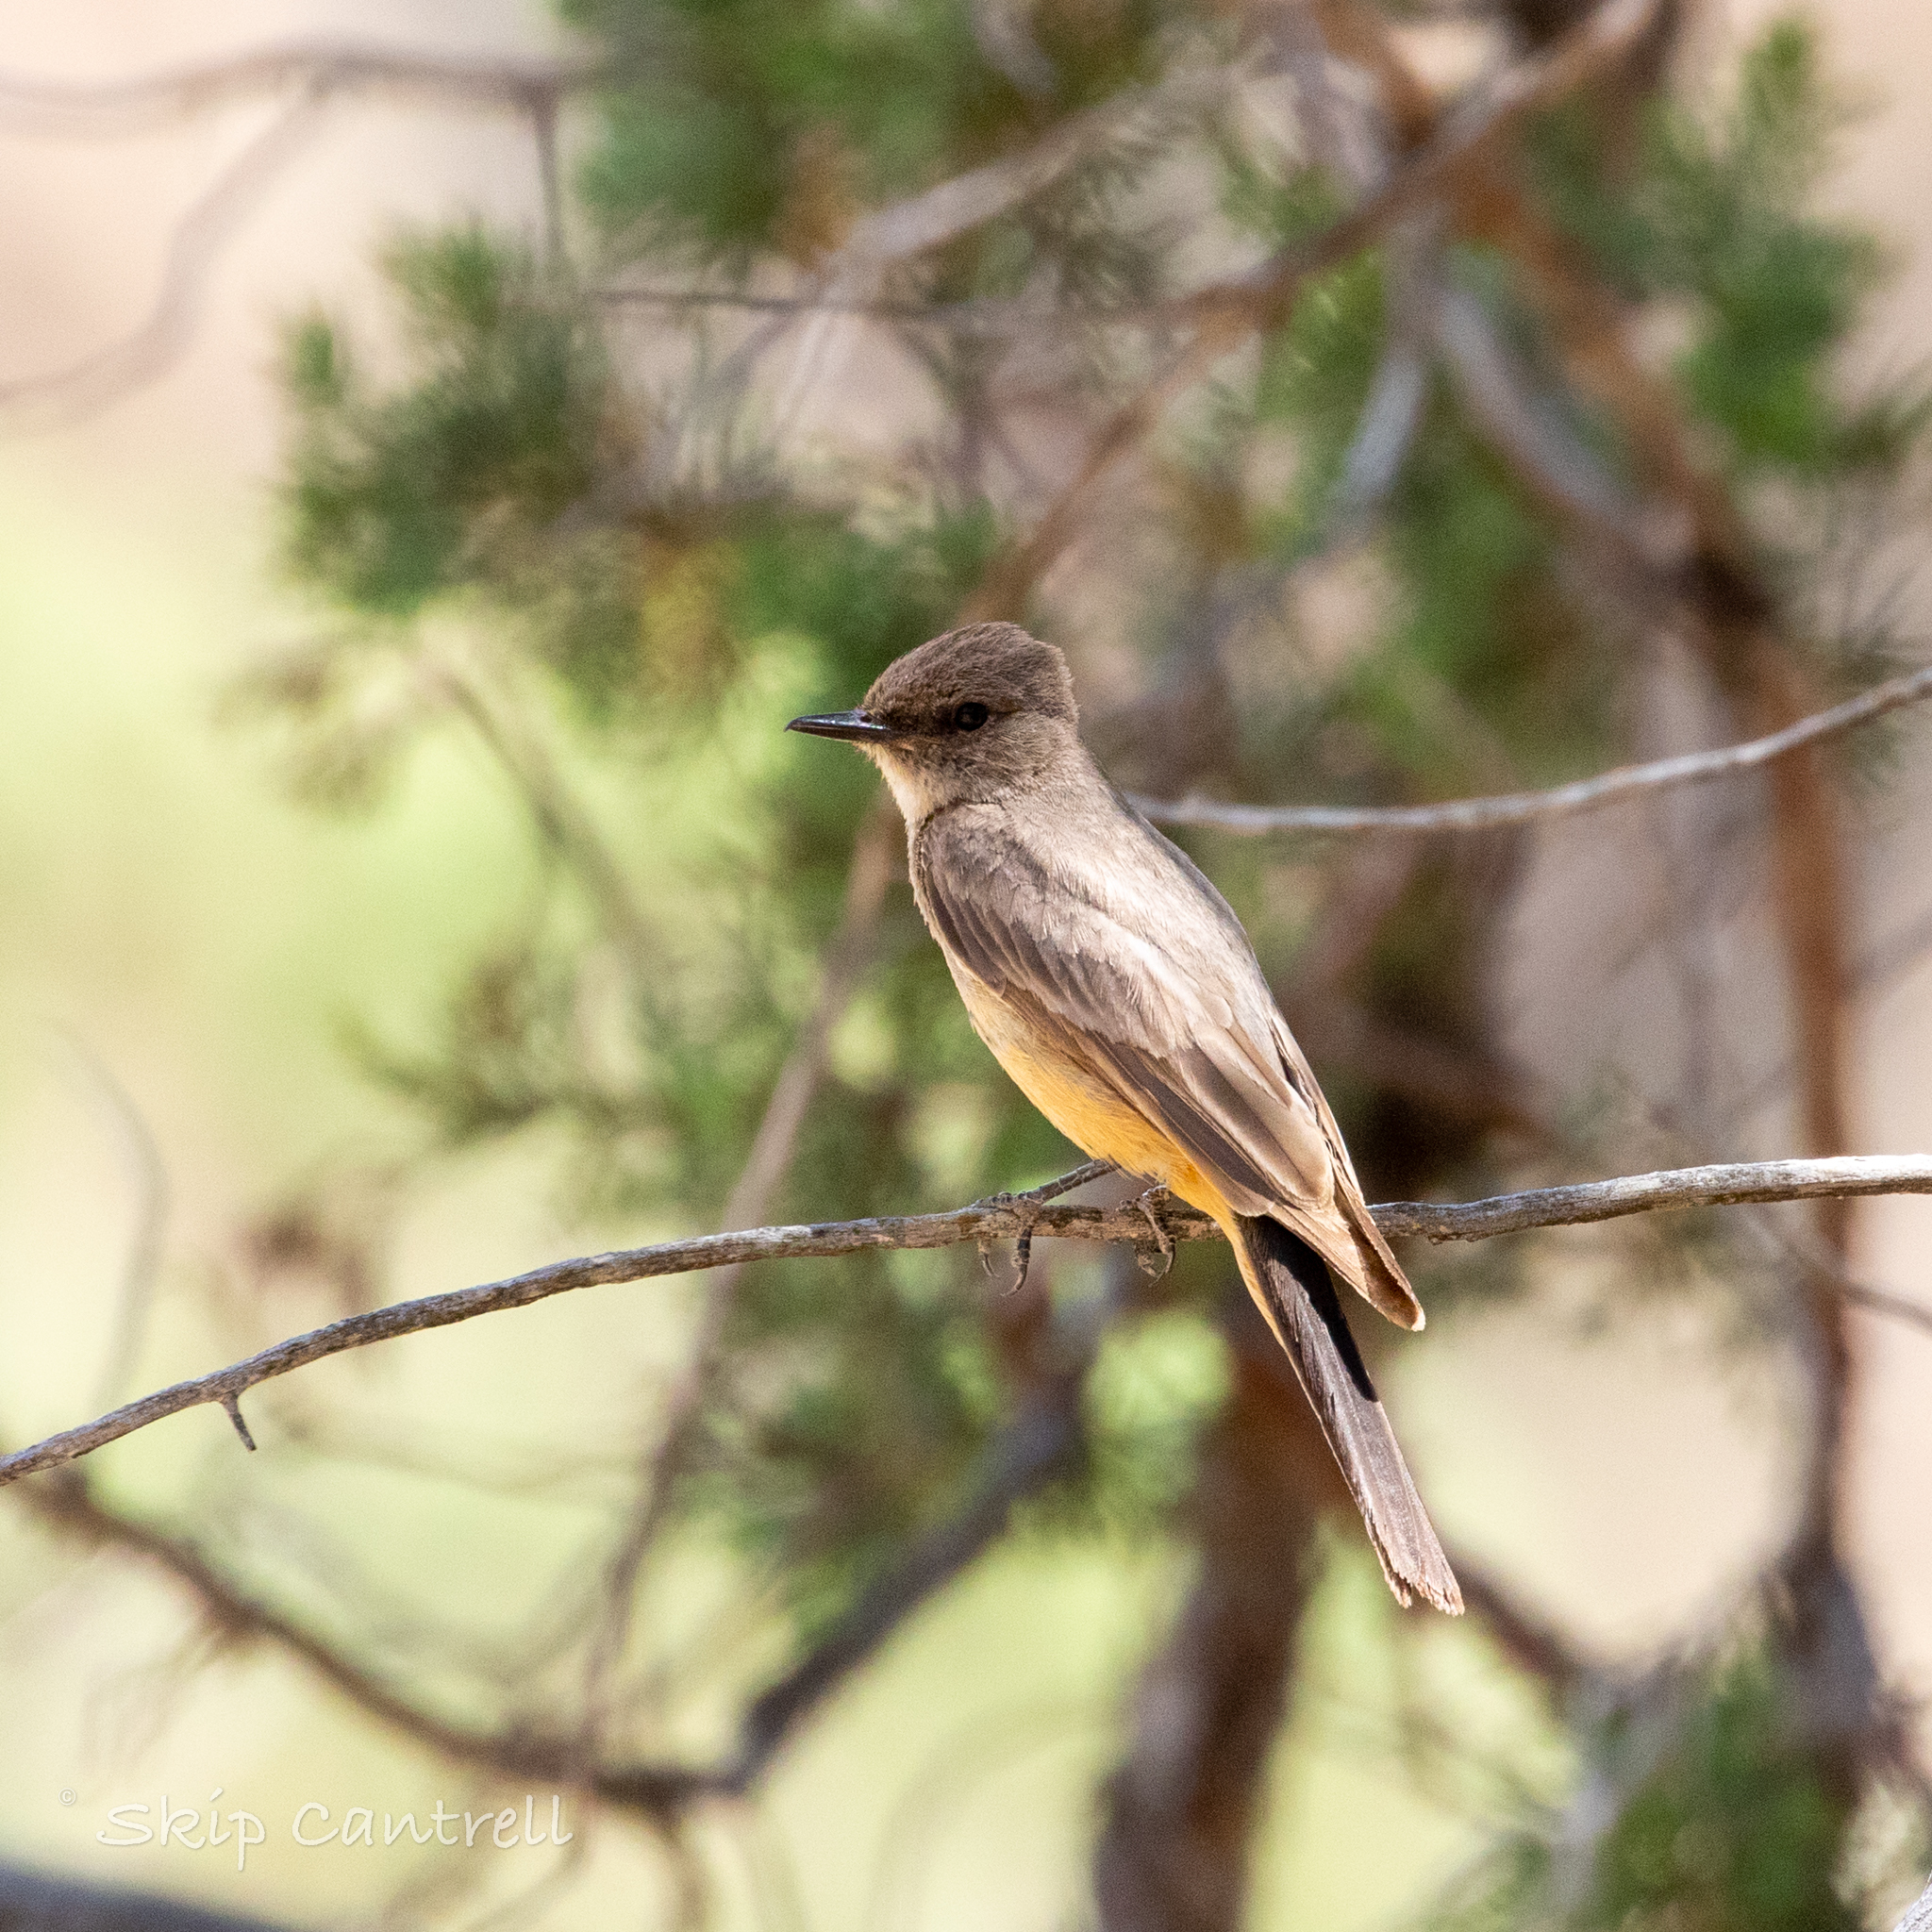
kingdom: Animalia
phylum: Chordata
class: Aves
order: Passeriformes
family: Tyrannidae
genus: Sayornis
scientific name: Sayornis saya
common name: Say's phoebe
